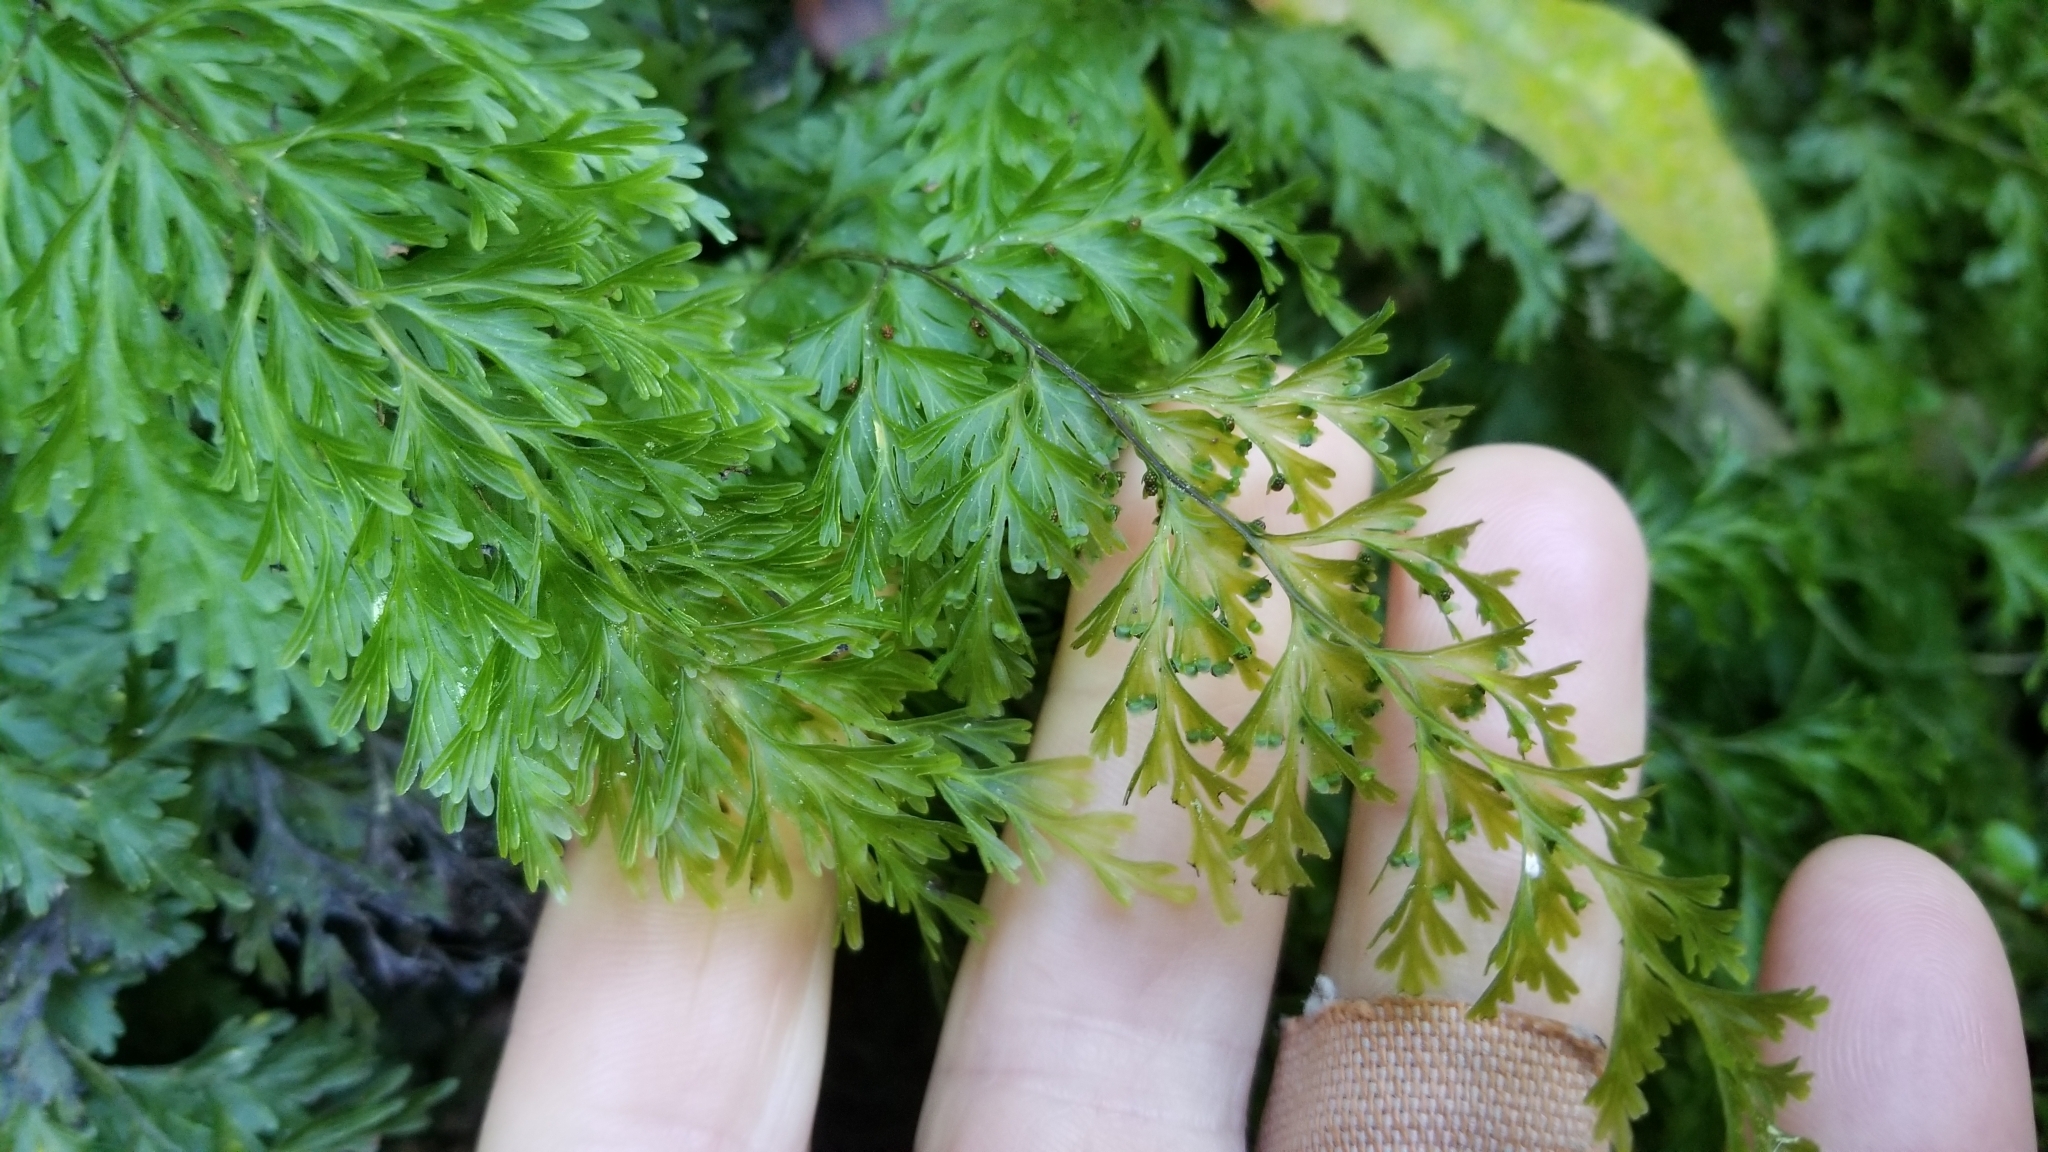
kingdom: Plantae
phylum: Tracheophyta
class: Polypodiopsida
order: Hymenophyllales
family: Hymenophyllaceae
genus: Hymenophyllum
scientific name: Hymenophyllum demissum
